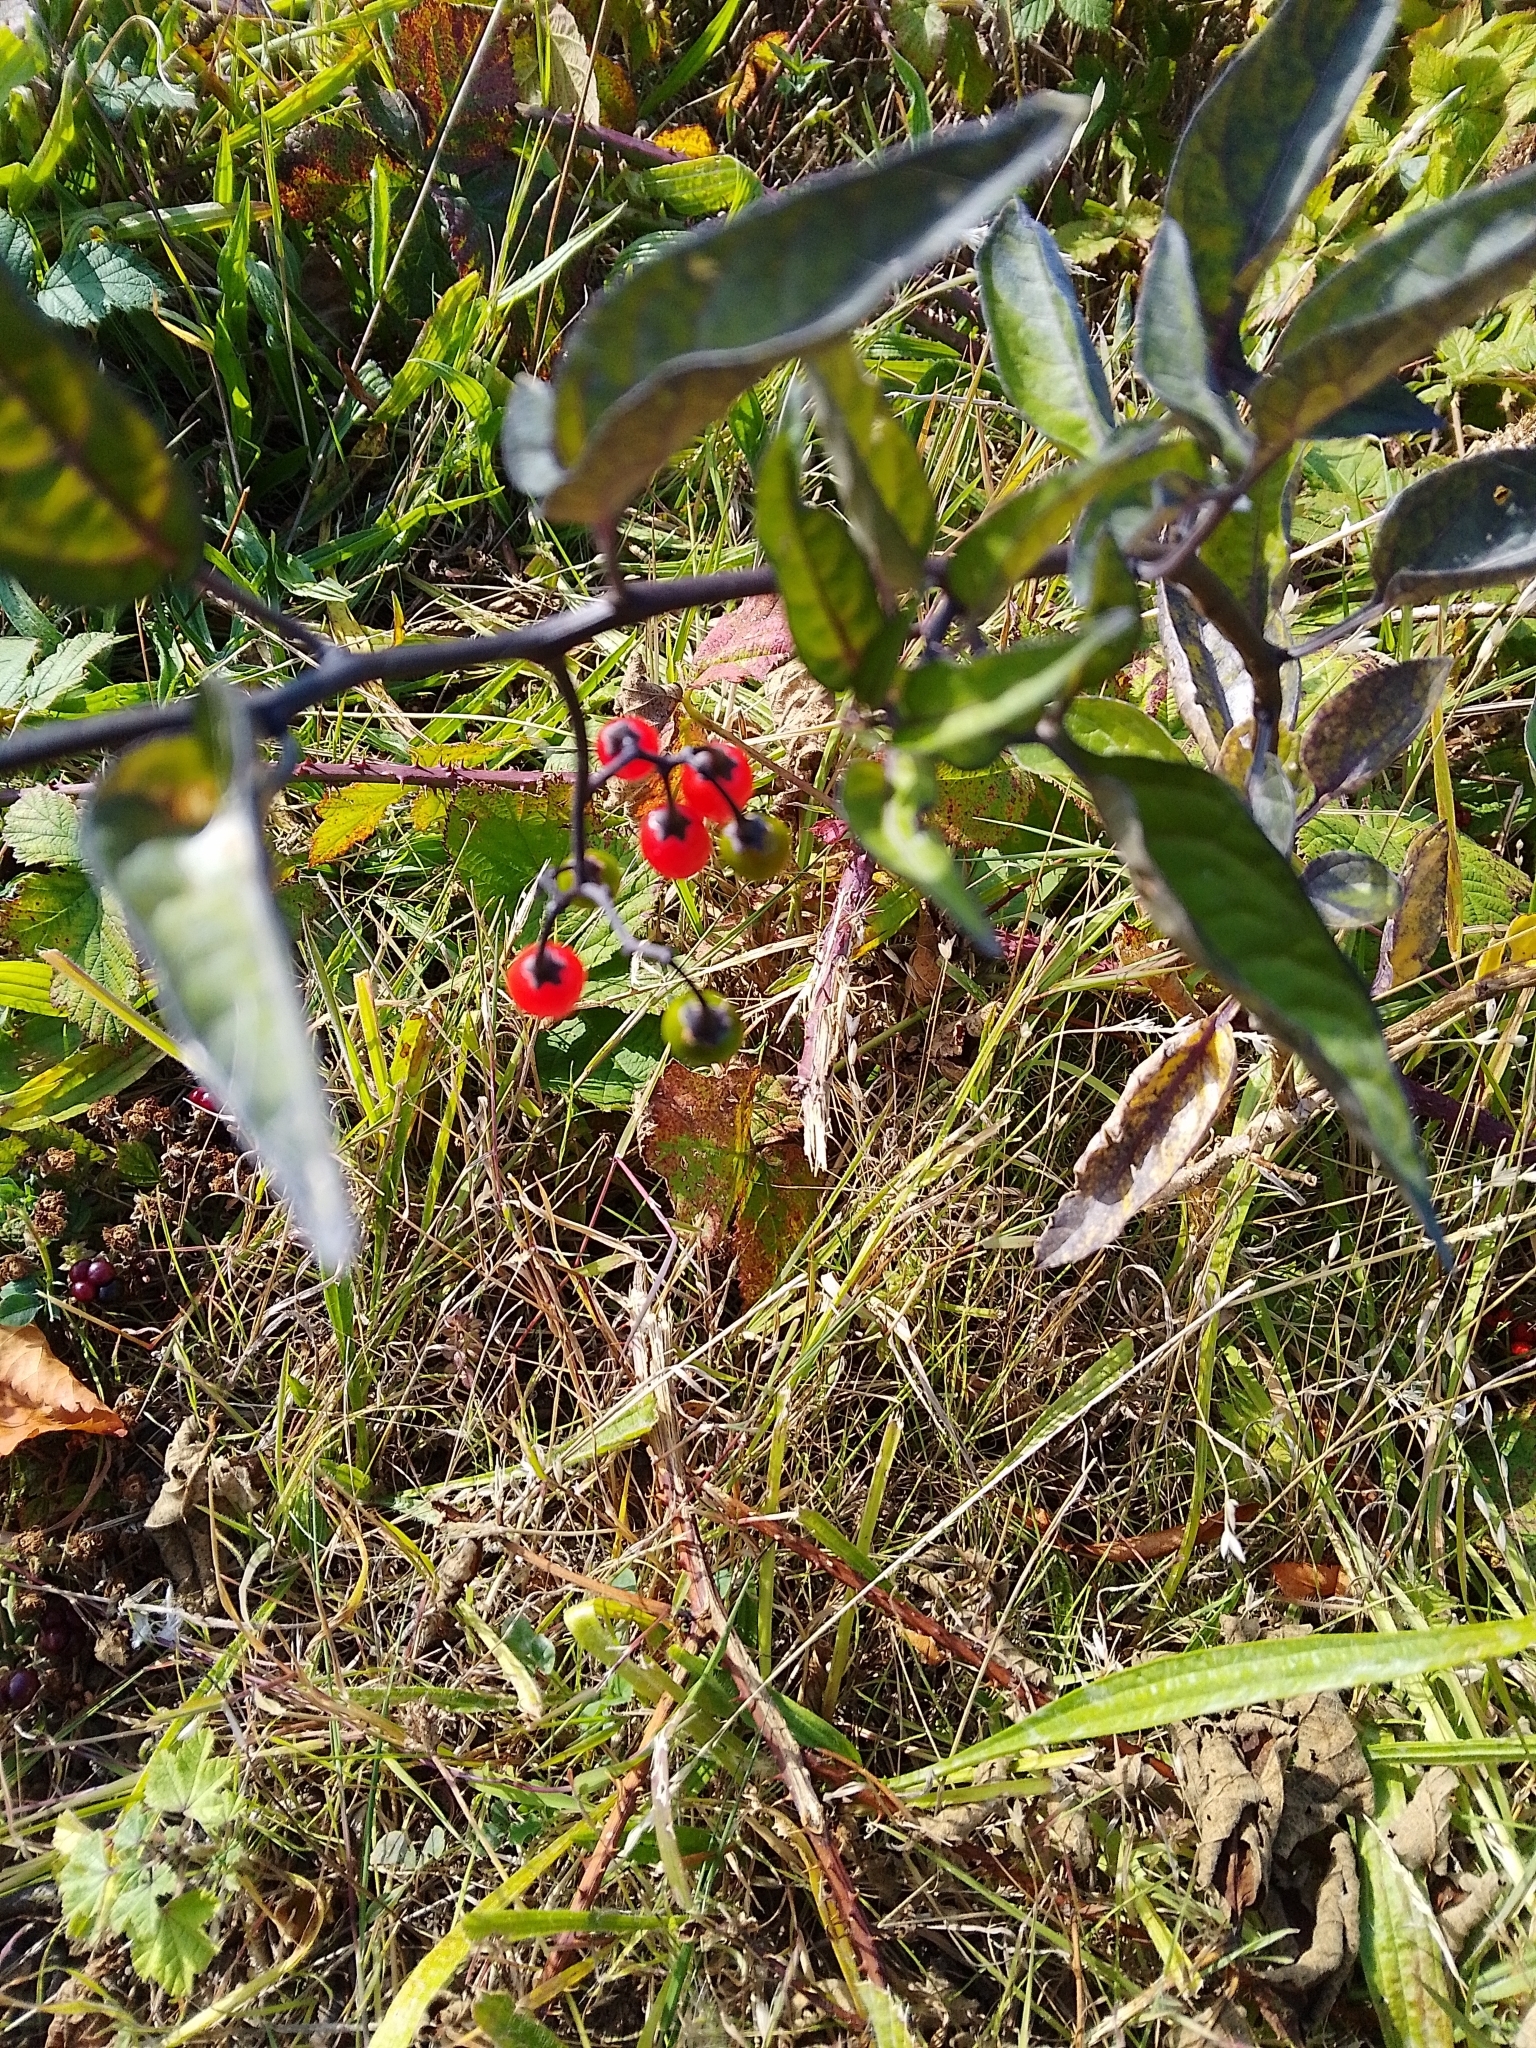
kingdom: Plantae
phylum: Tracheophyta
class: Magnoliopsida
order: Solanales
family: Solanaceae
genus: Solanum
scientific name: Solanum dulcamara
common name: Climbing nightshade
